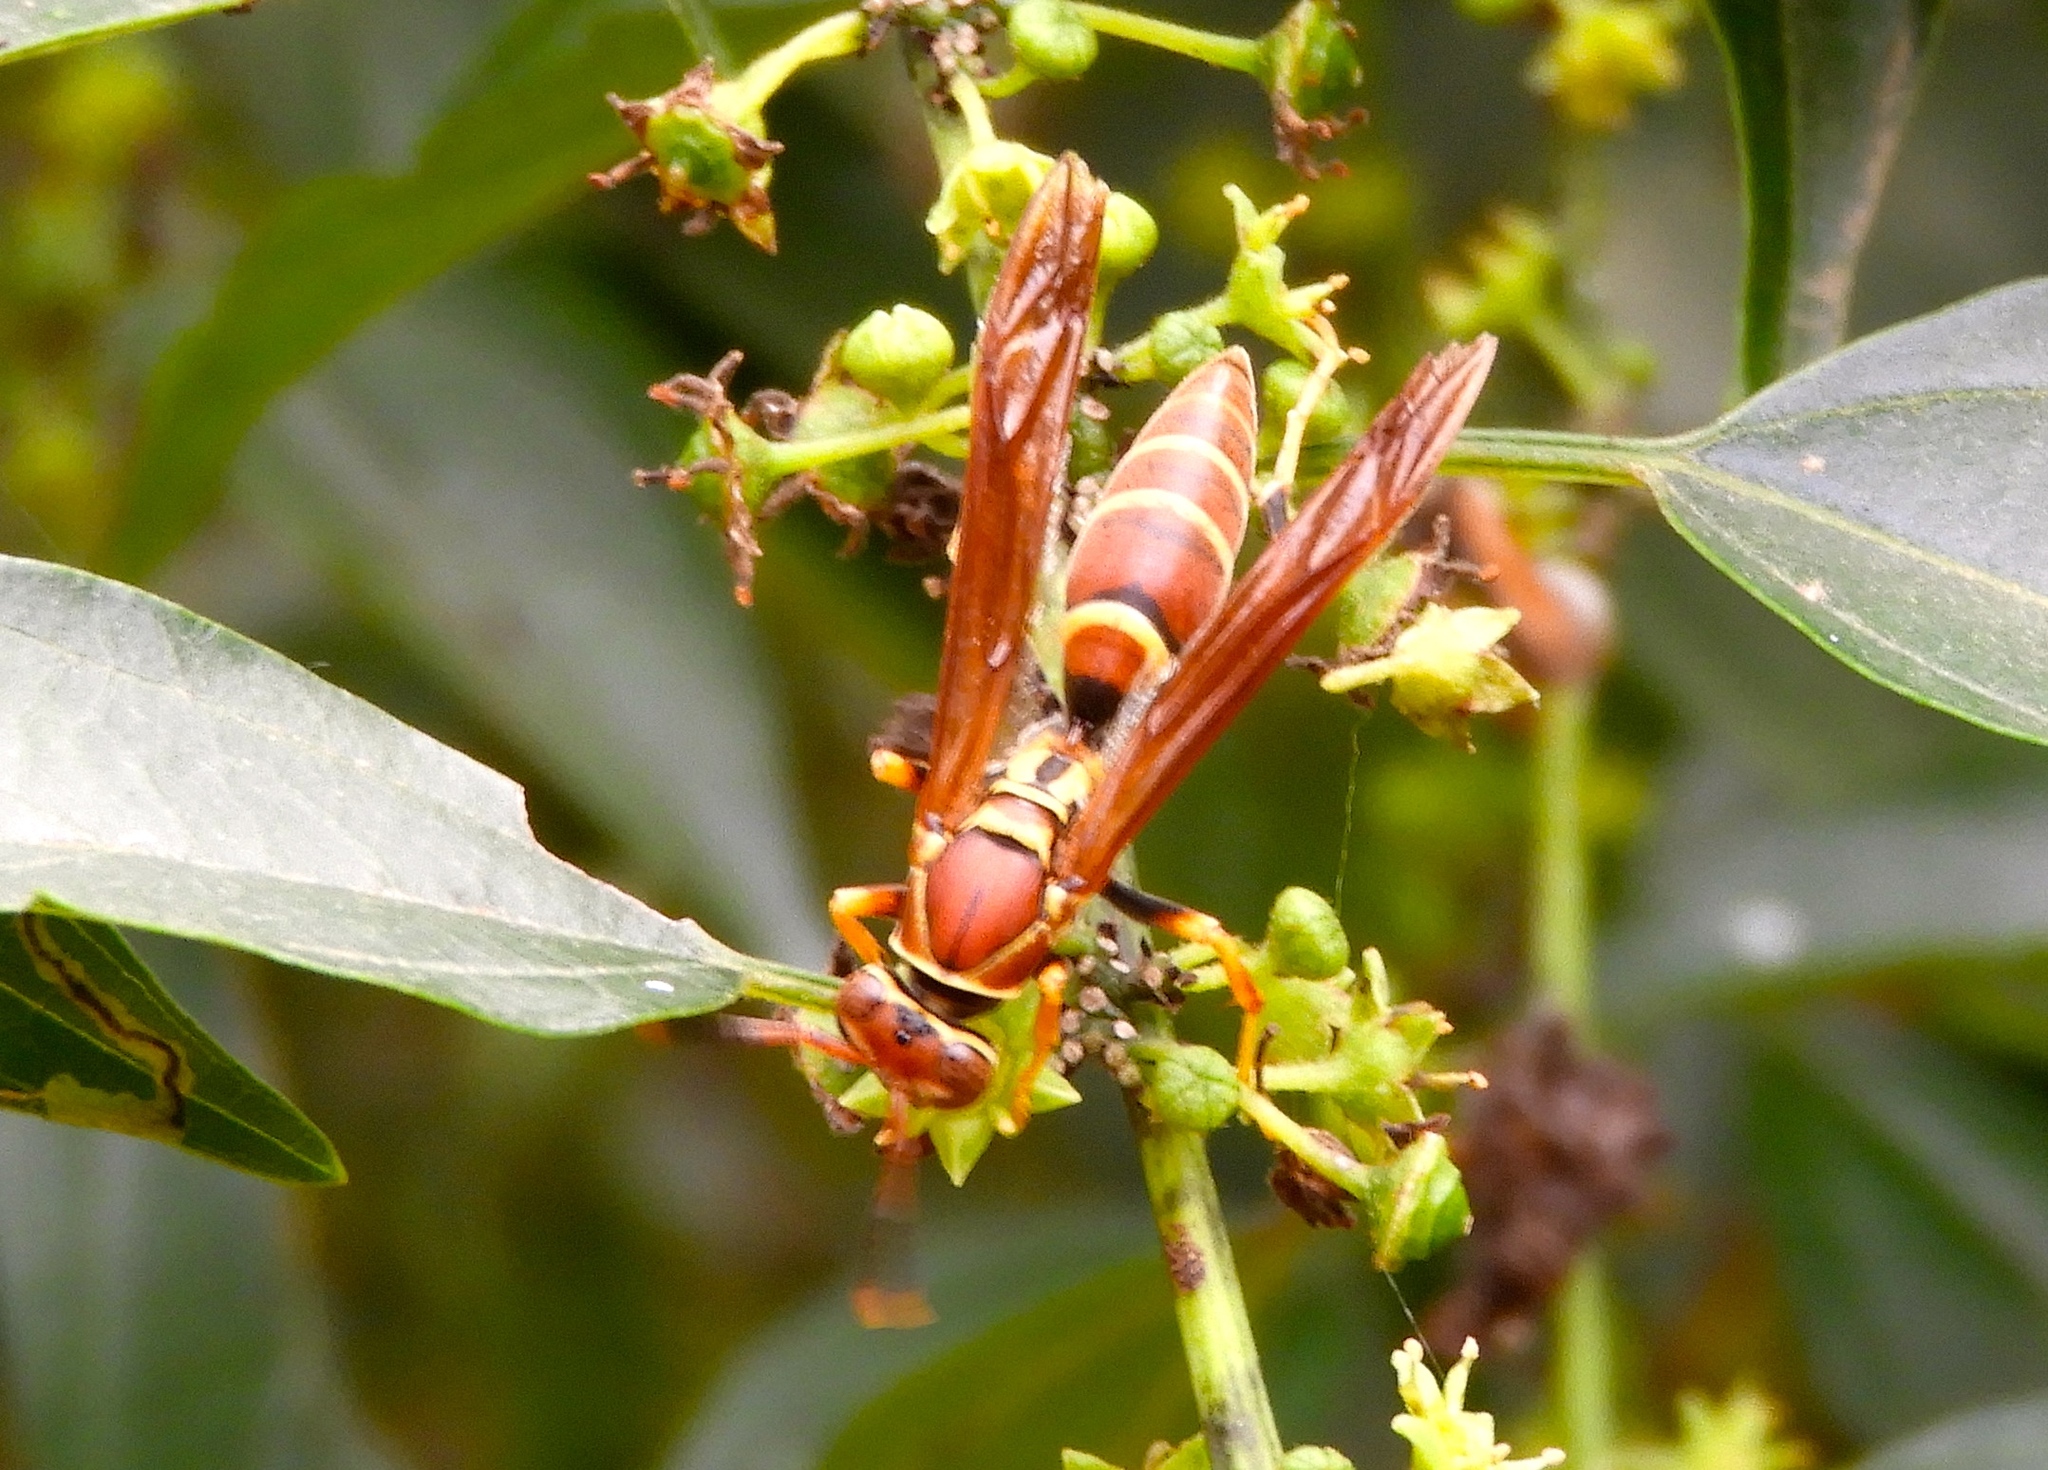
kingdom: Animalia
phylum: Arthropoda
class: Insecta
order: Hymenoptera
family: Eumenidae
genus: Polistes
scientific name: Polistes instabilis
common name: Unstable paper wasp
